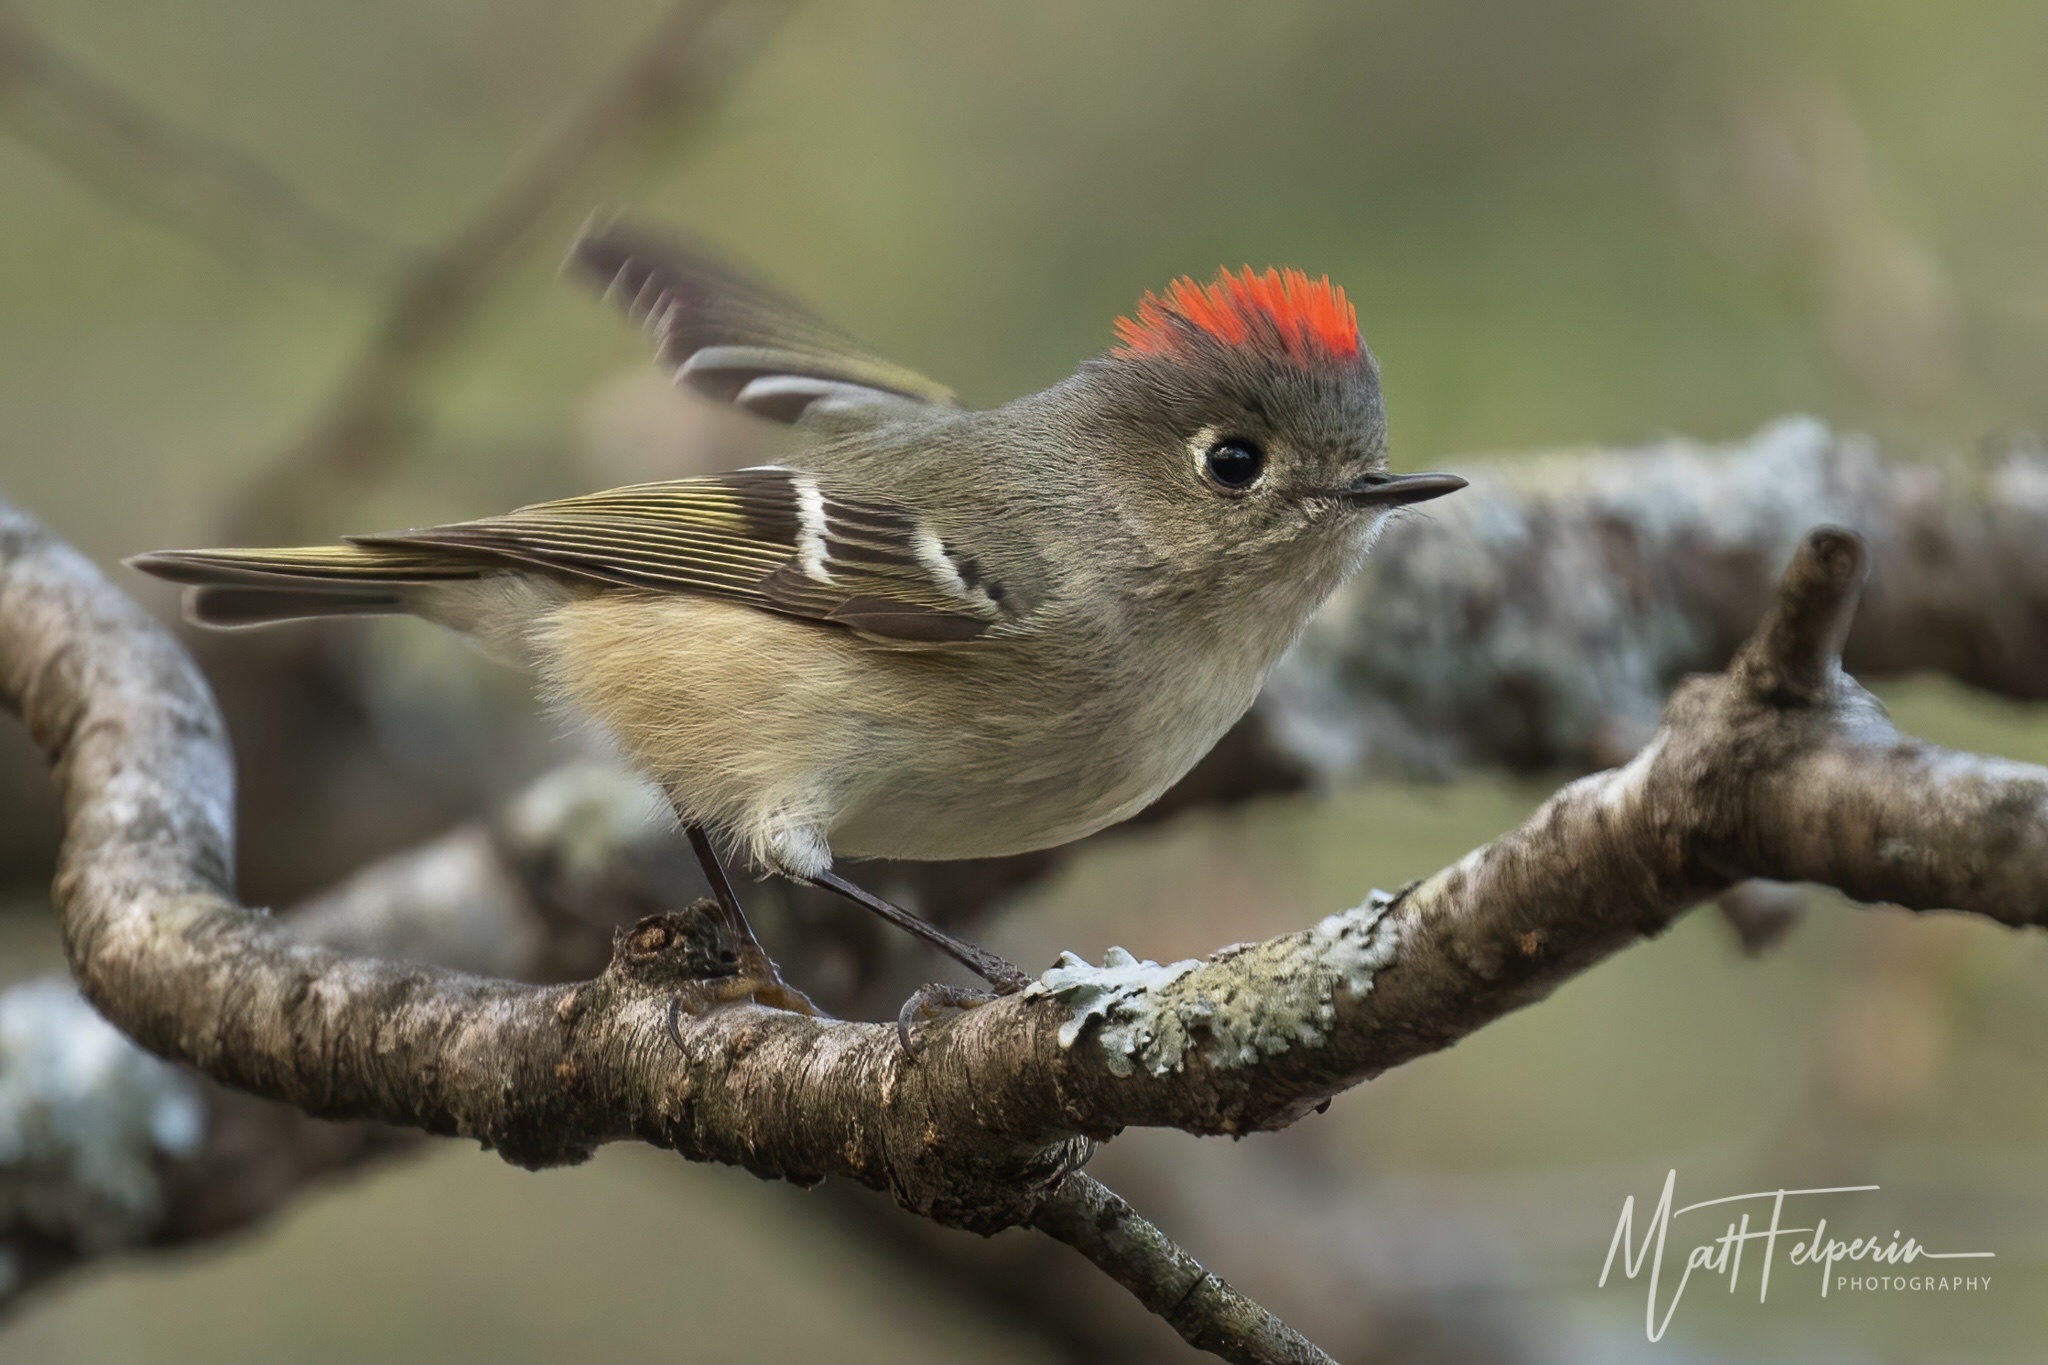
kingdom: Animalia
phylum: Chordata
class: Aves
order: Passeriformes
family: Regulidae
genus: Regulus
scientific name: Regulus calendula
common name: Ruby-crowned kinglet
